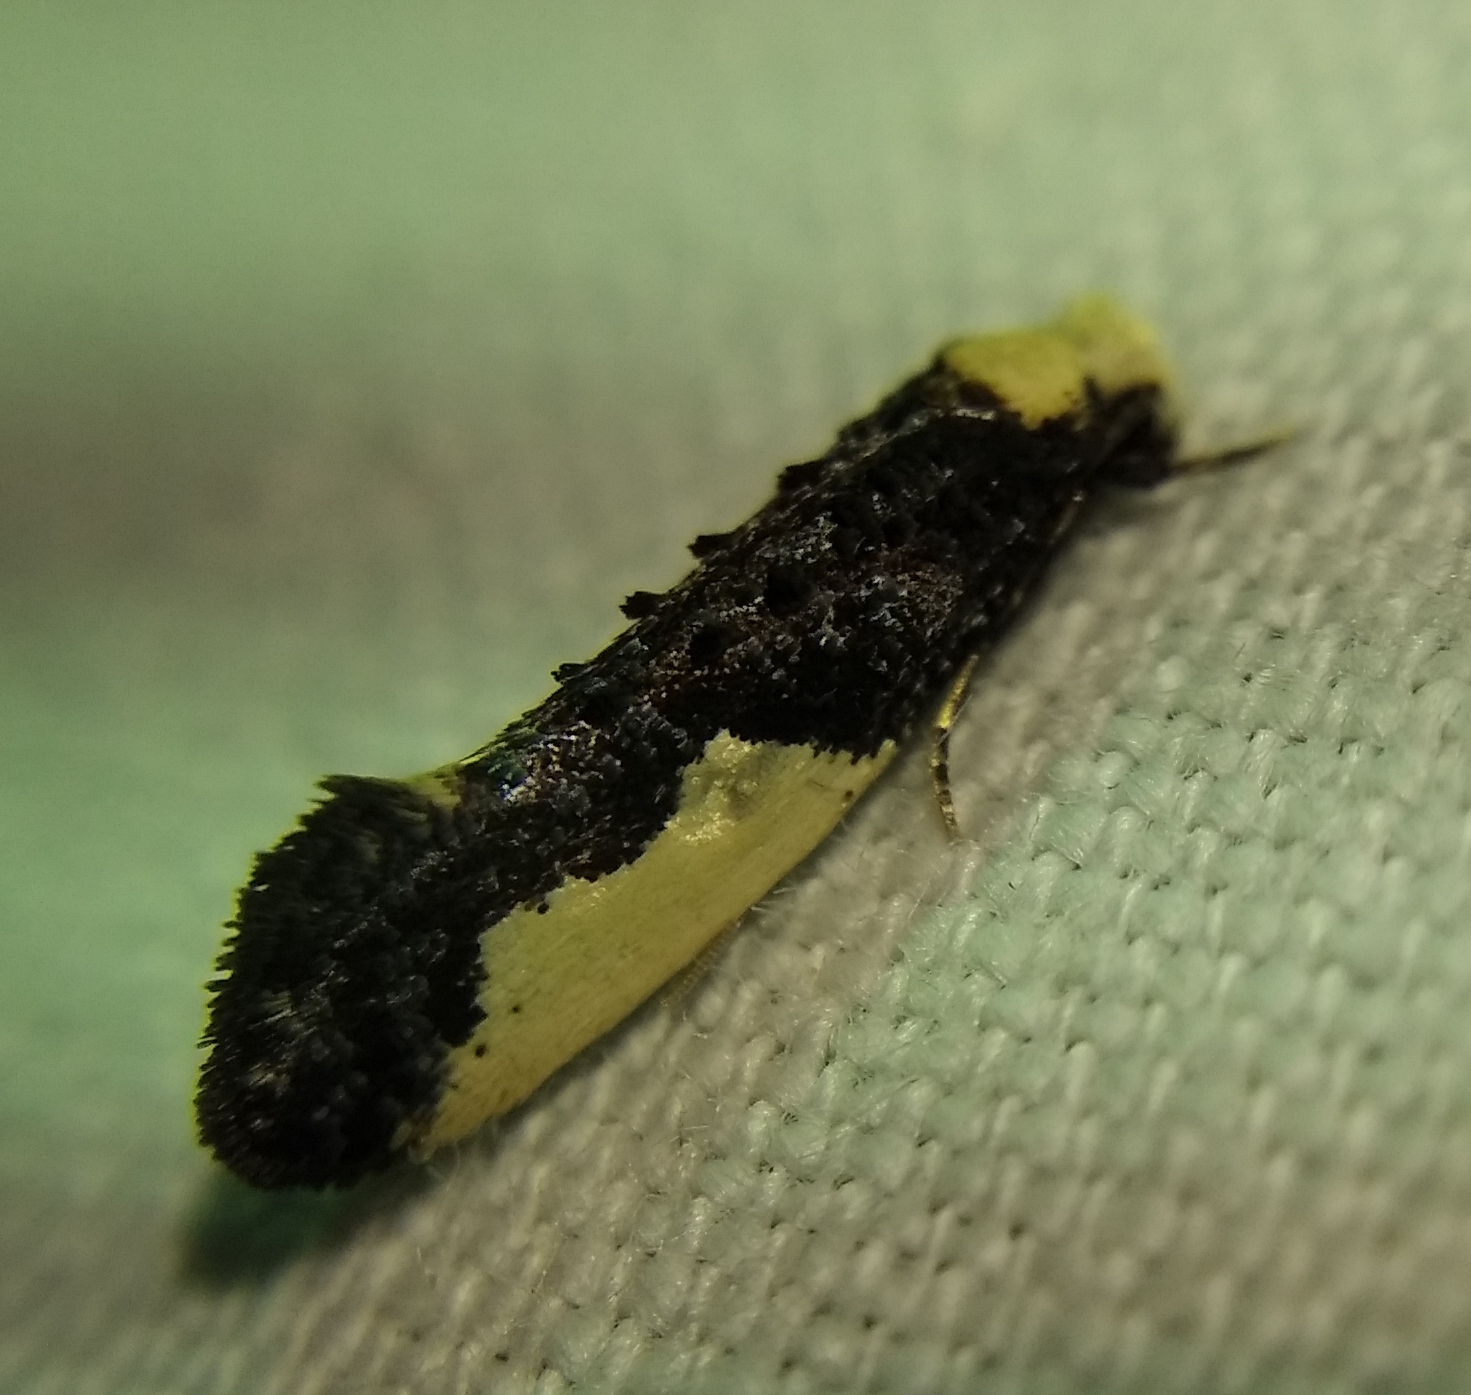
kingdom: Animalia
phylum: Arthropoda
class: Insecta
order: Lepidoptera
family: Tineidae
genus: Monopis
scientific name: Monopis monachella
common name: Moth
